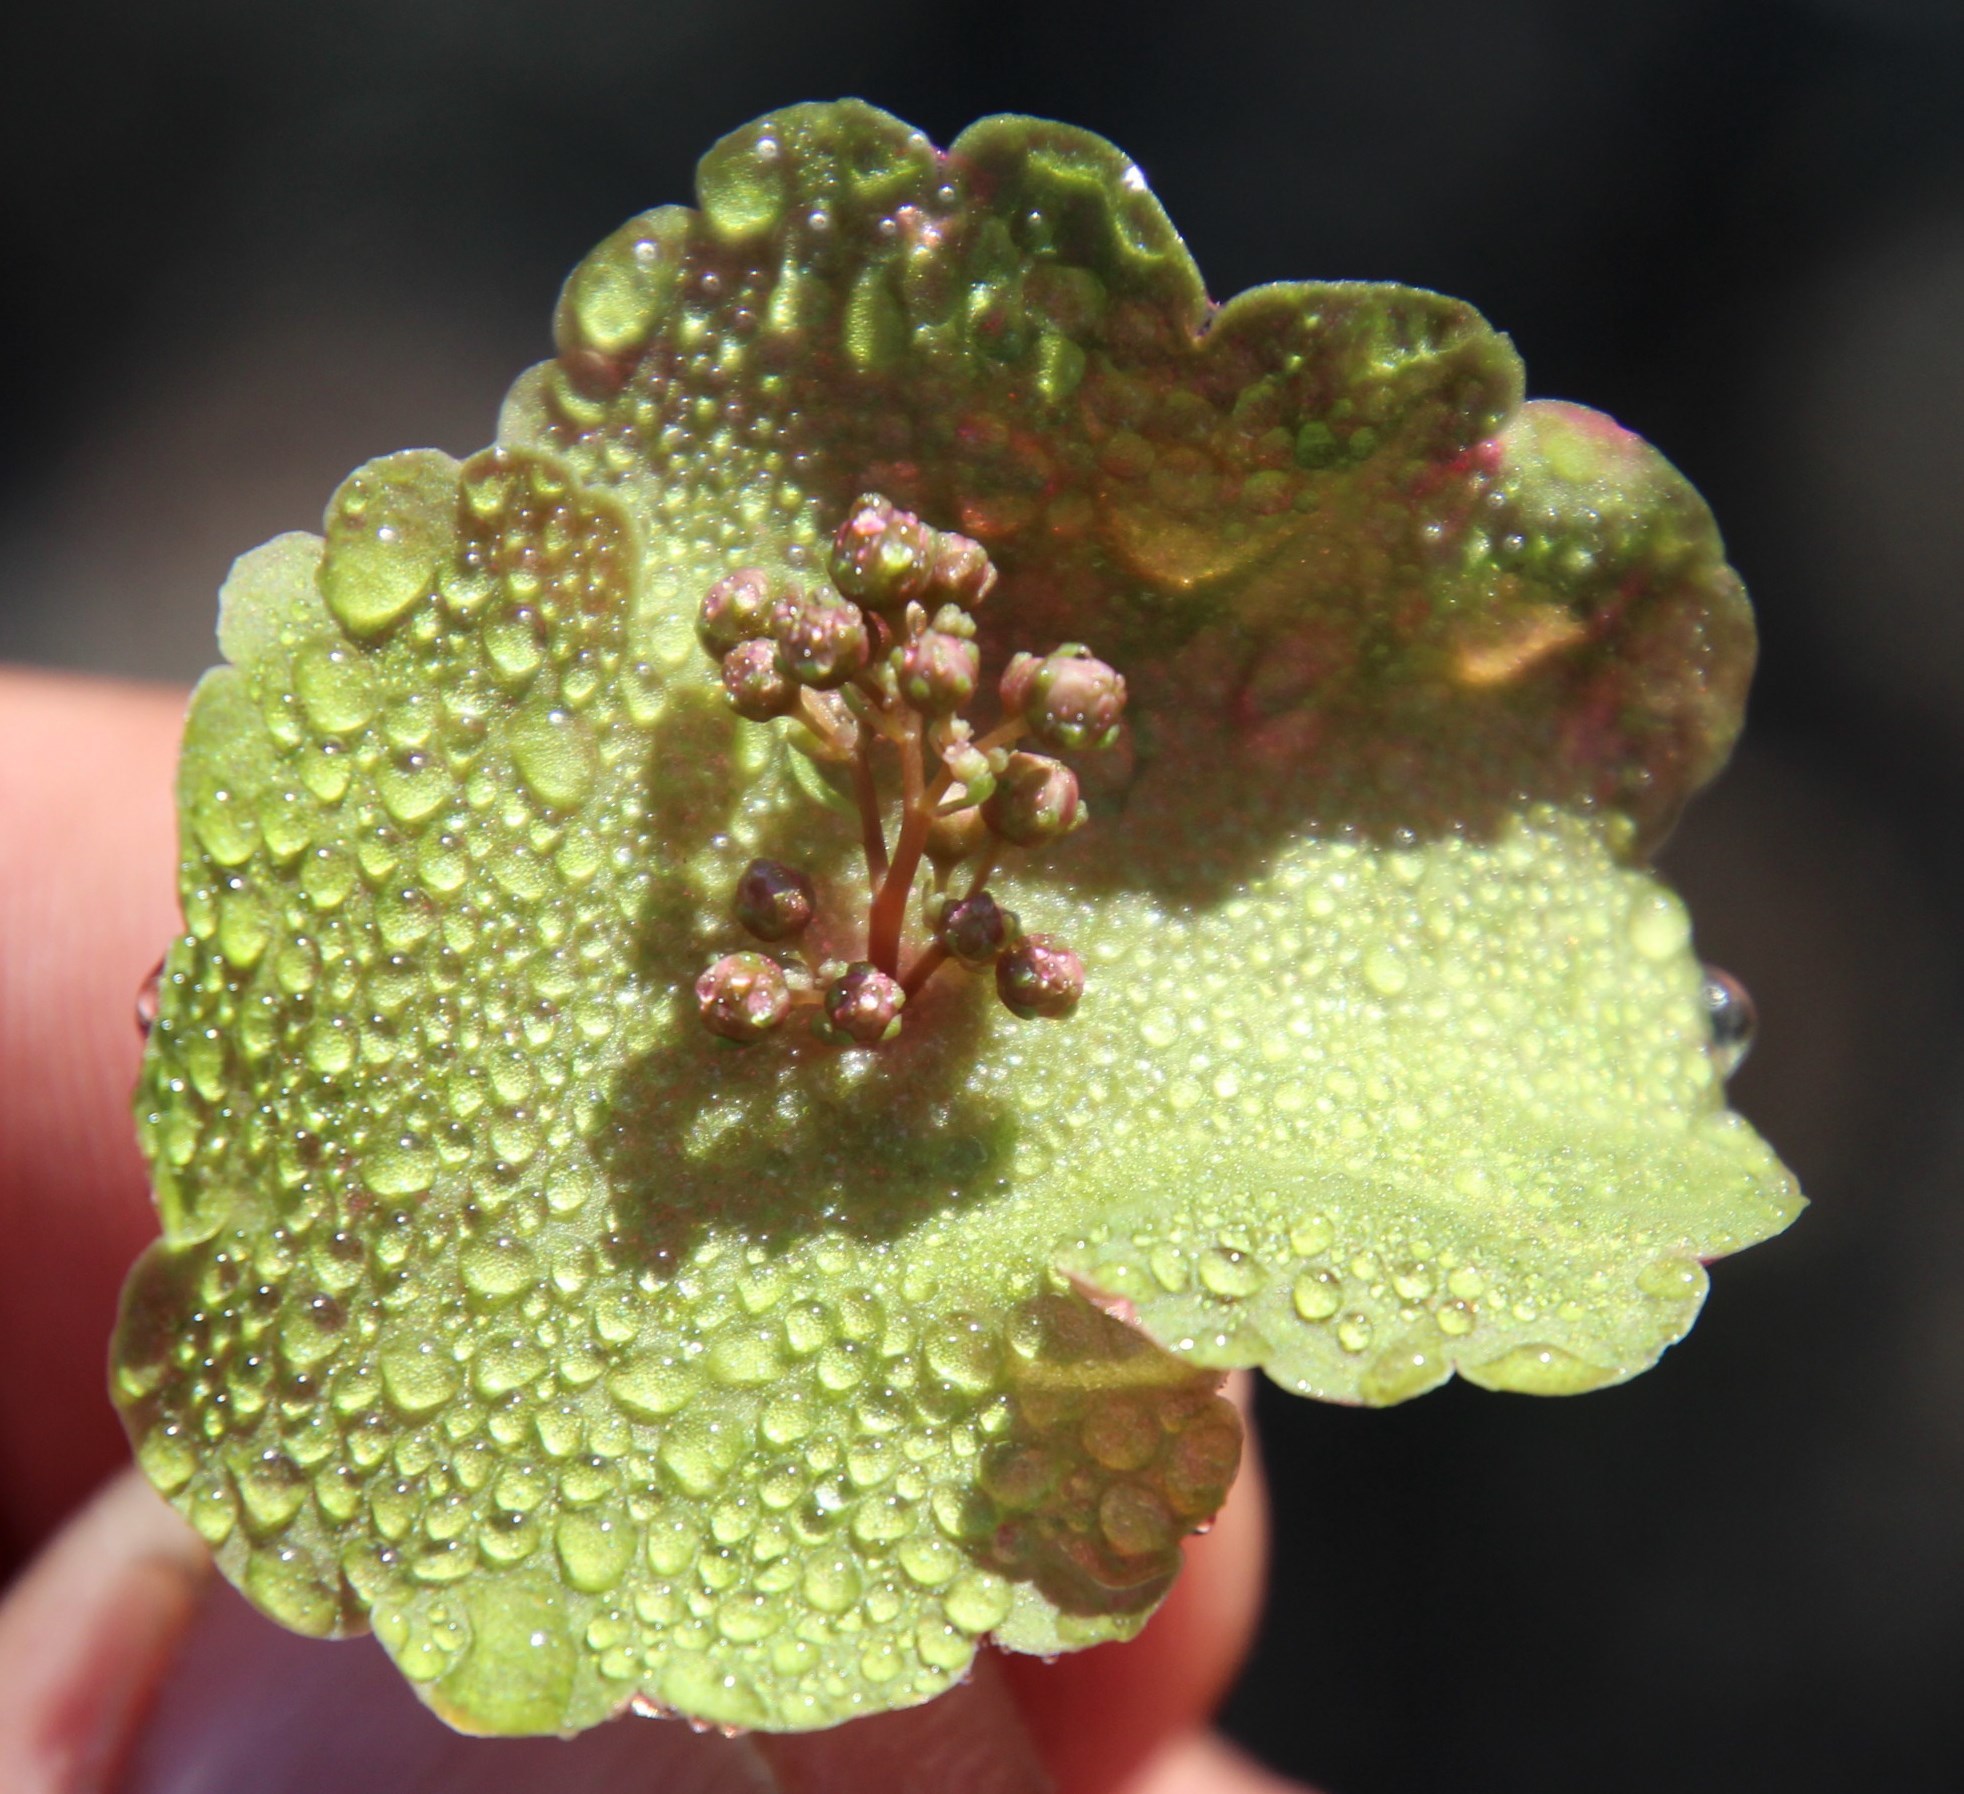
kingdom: Plantae
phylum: Tracheophyta
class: Magnoliopsida
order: Saxifragales
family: Crassulaceae
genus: Crassula
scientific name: Crassula umbella
